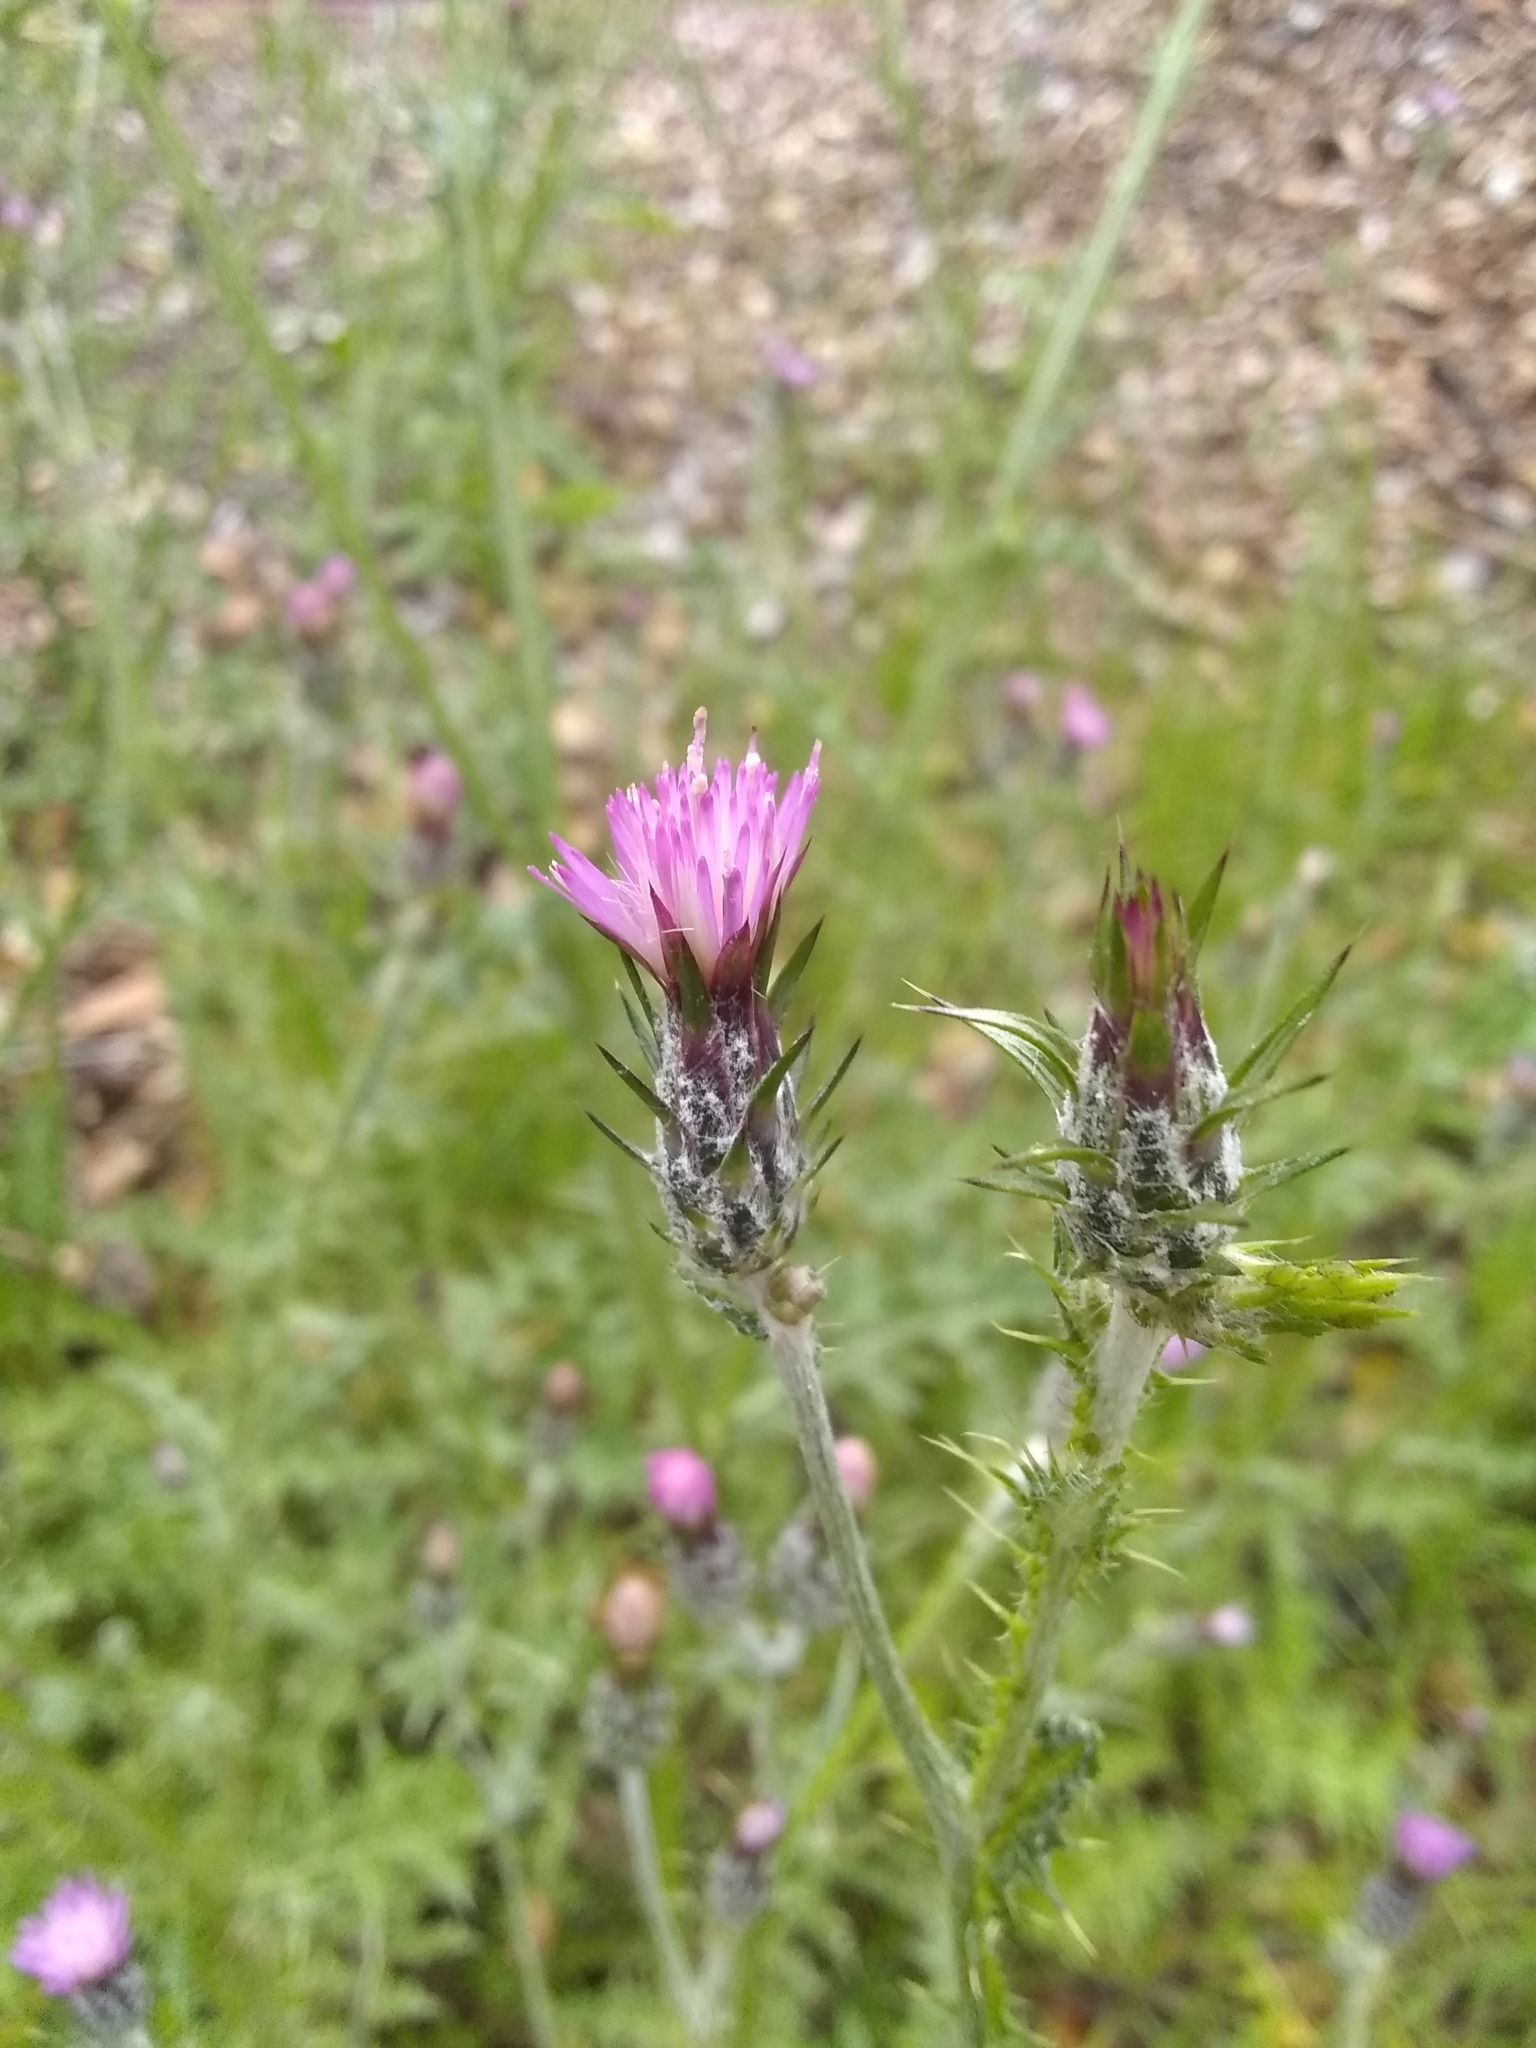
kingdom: Plantae
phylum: Tracheophyta
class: Magnoliopsida
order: Asterales
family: Asteraceae
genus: Carduus
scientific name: Carduus pycnocephalus
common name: Plymouth thistle
